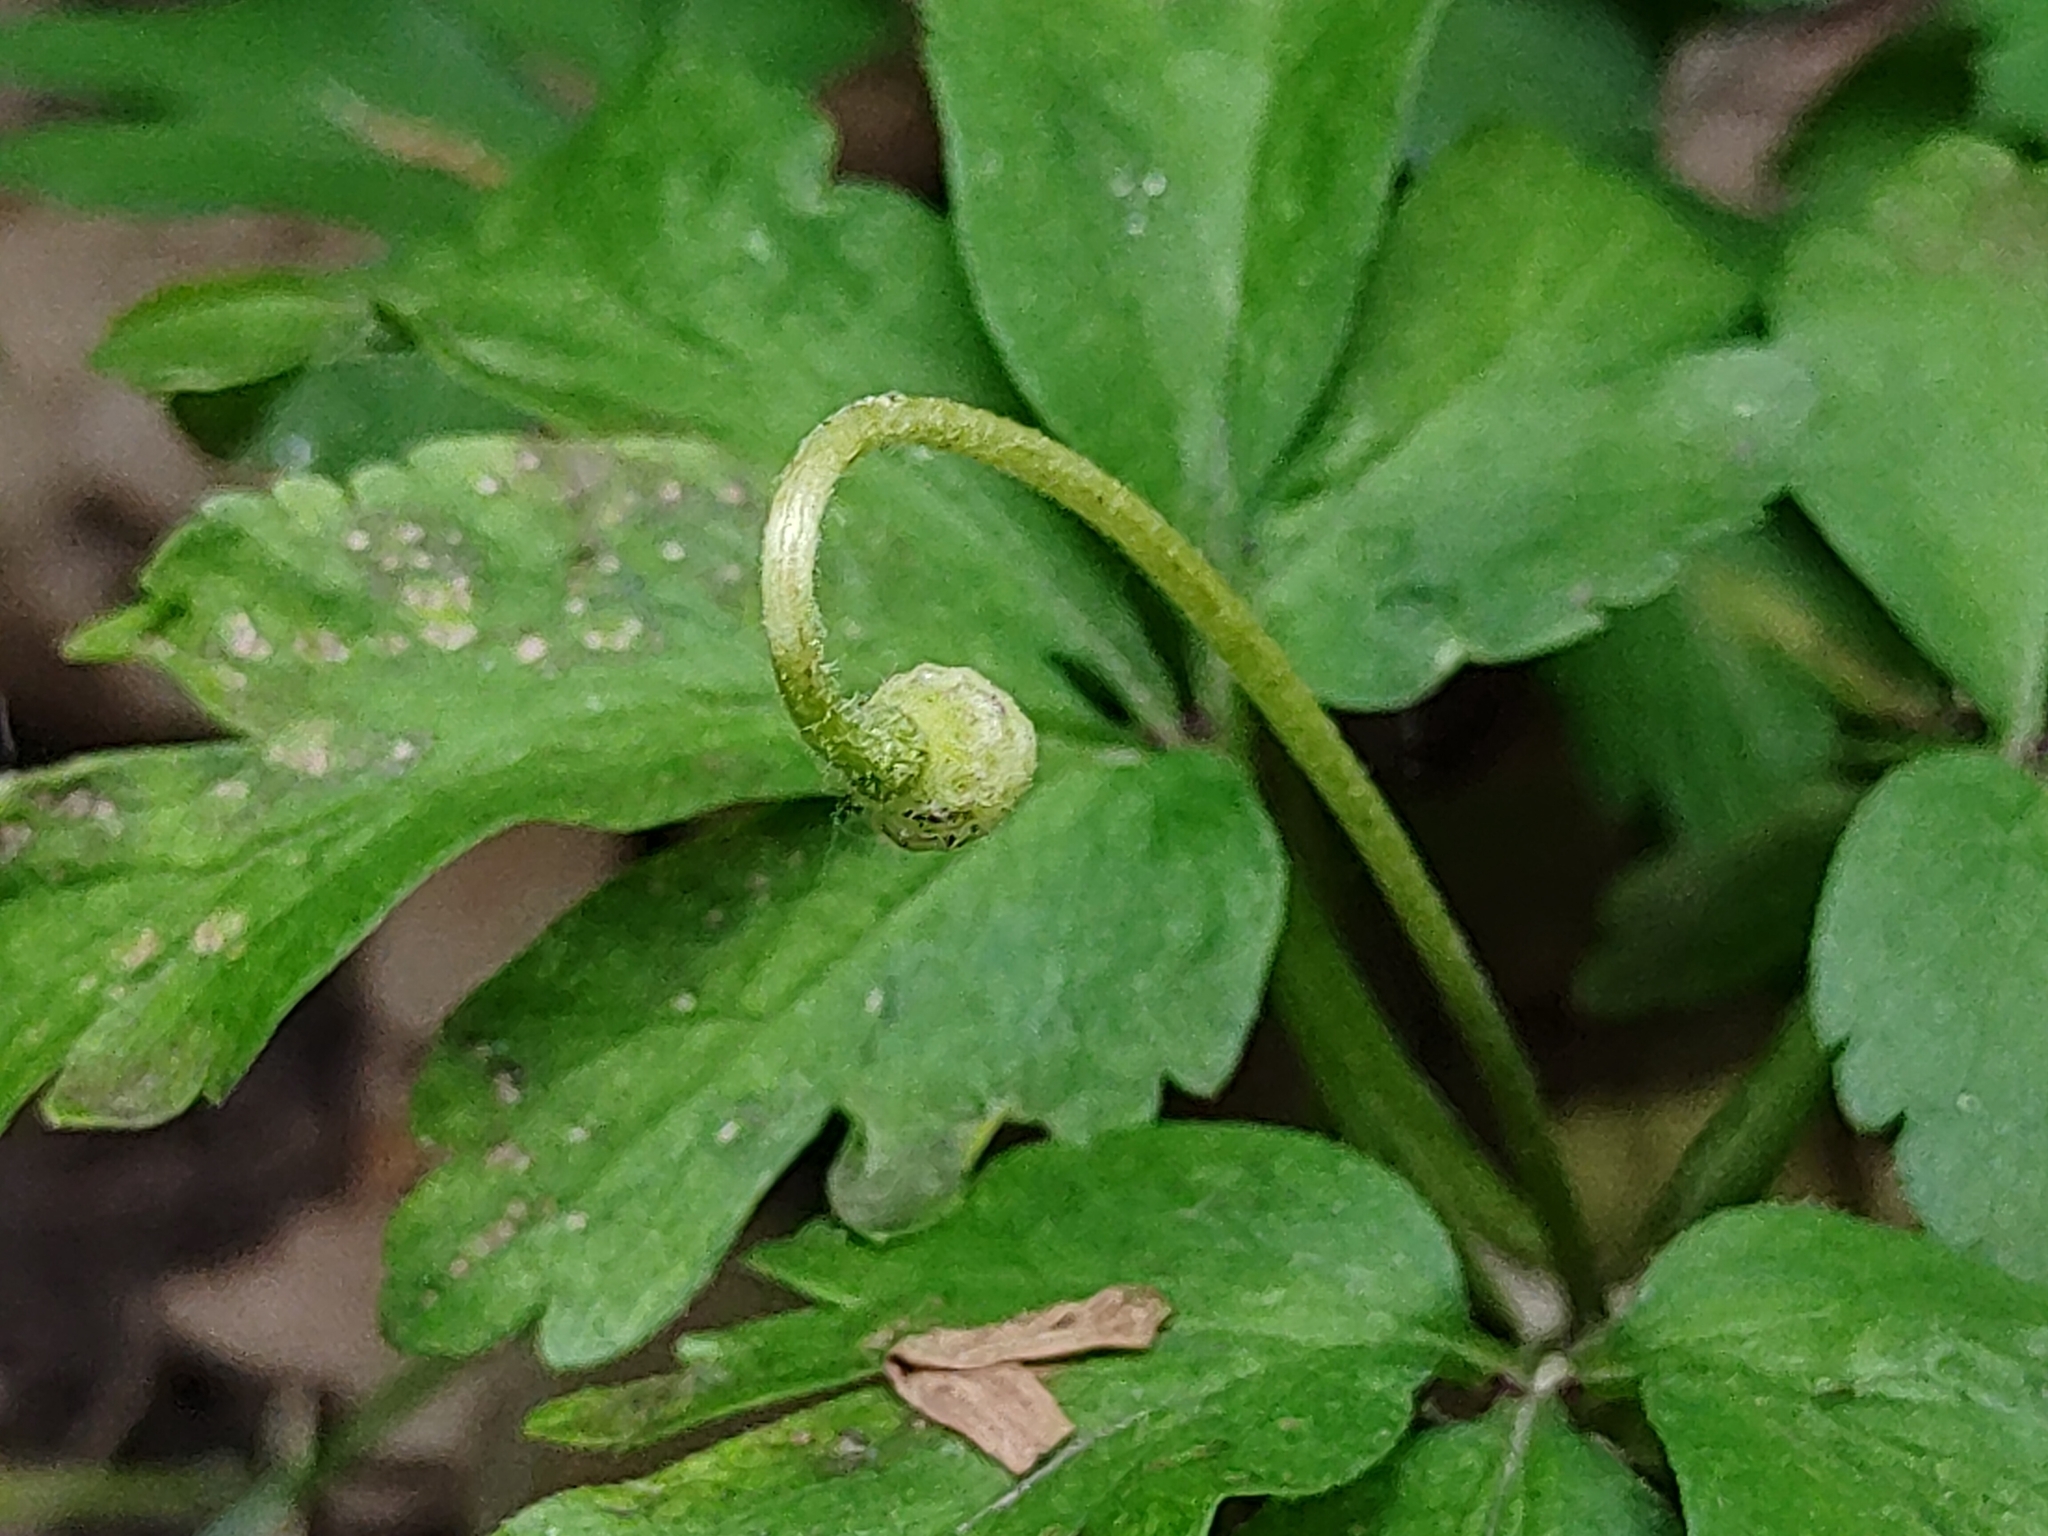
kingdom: Plantae
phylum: Tracheophyta
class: Magnoliopsida
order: Ranunculales
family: Ranunculaceae
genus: Anemone
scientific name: Anemone nemorosa
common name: Wood anemone
